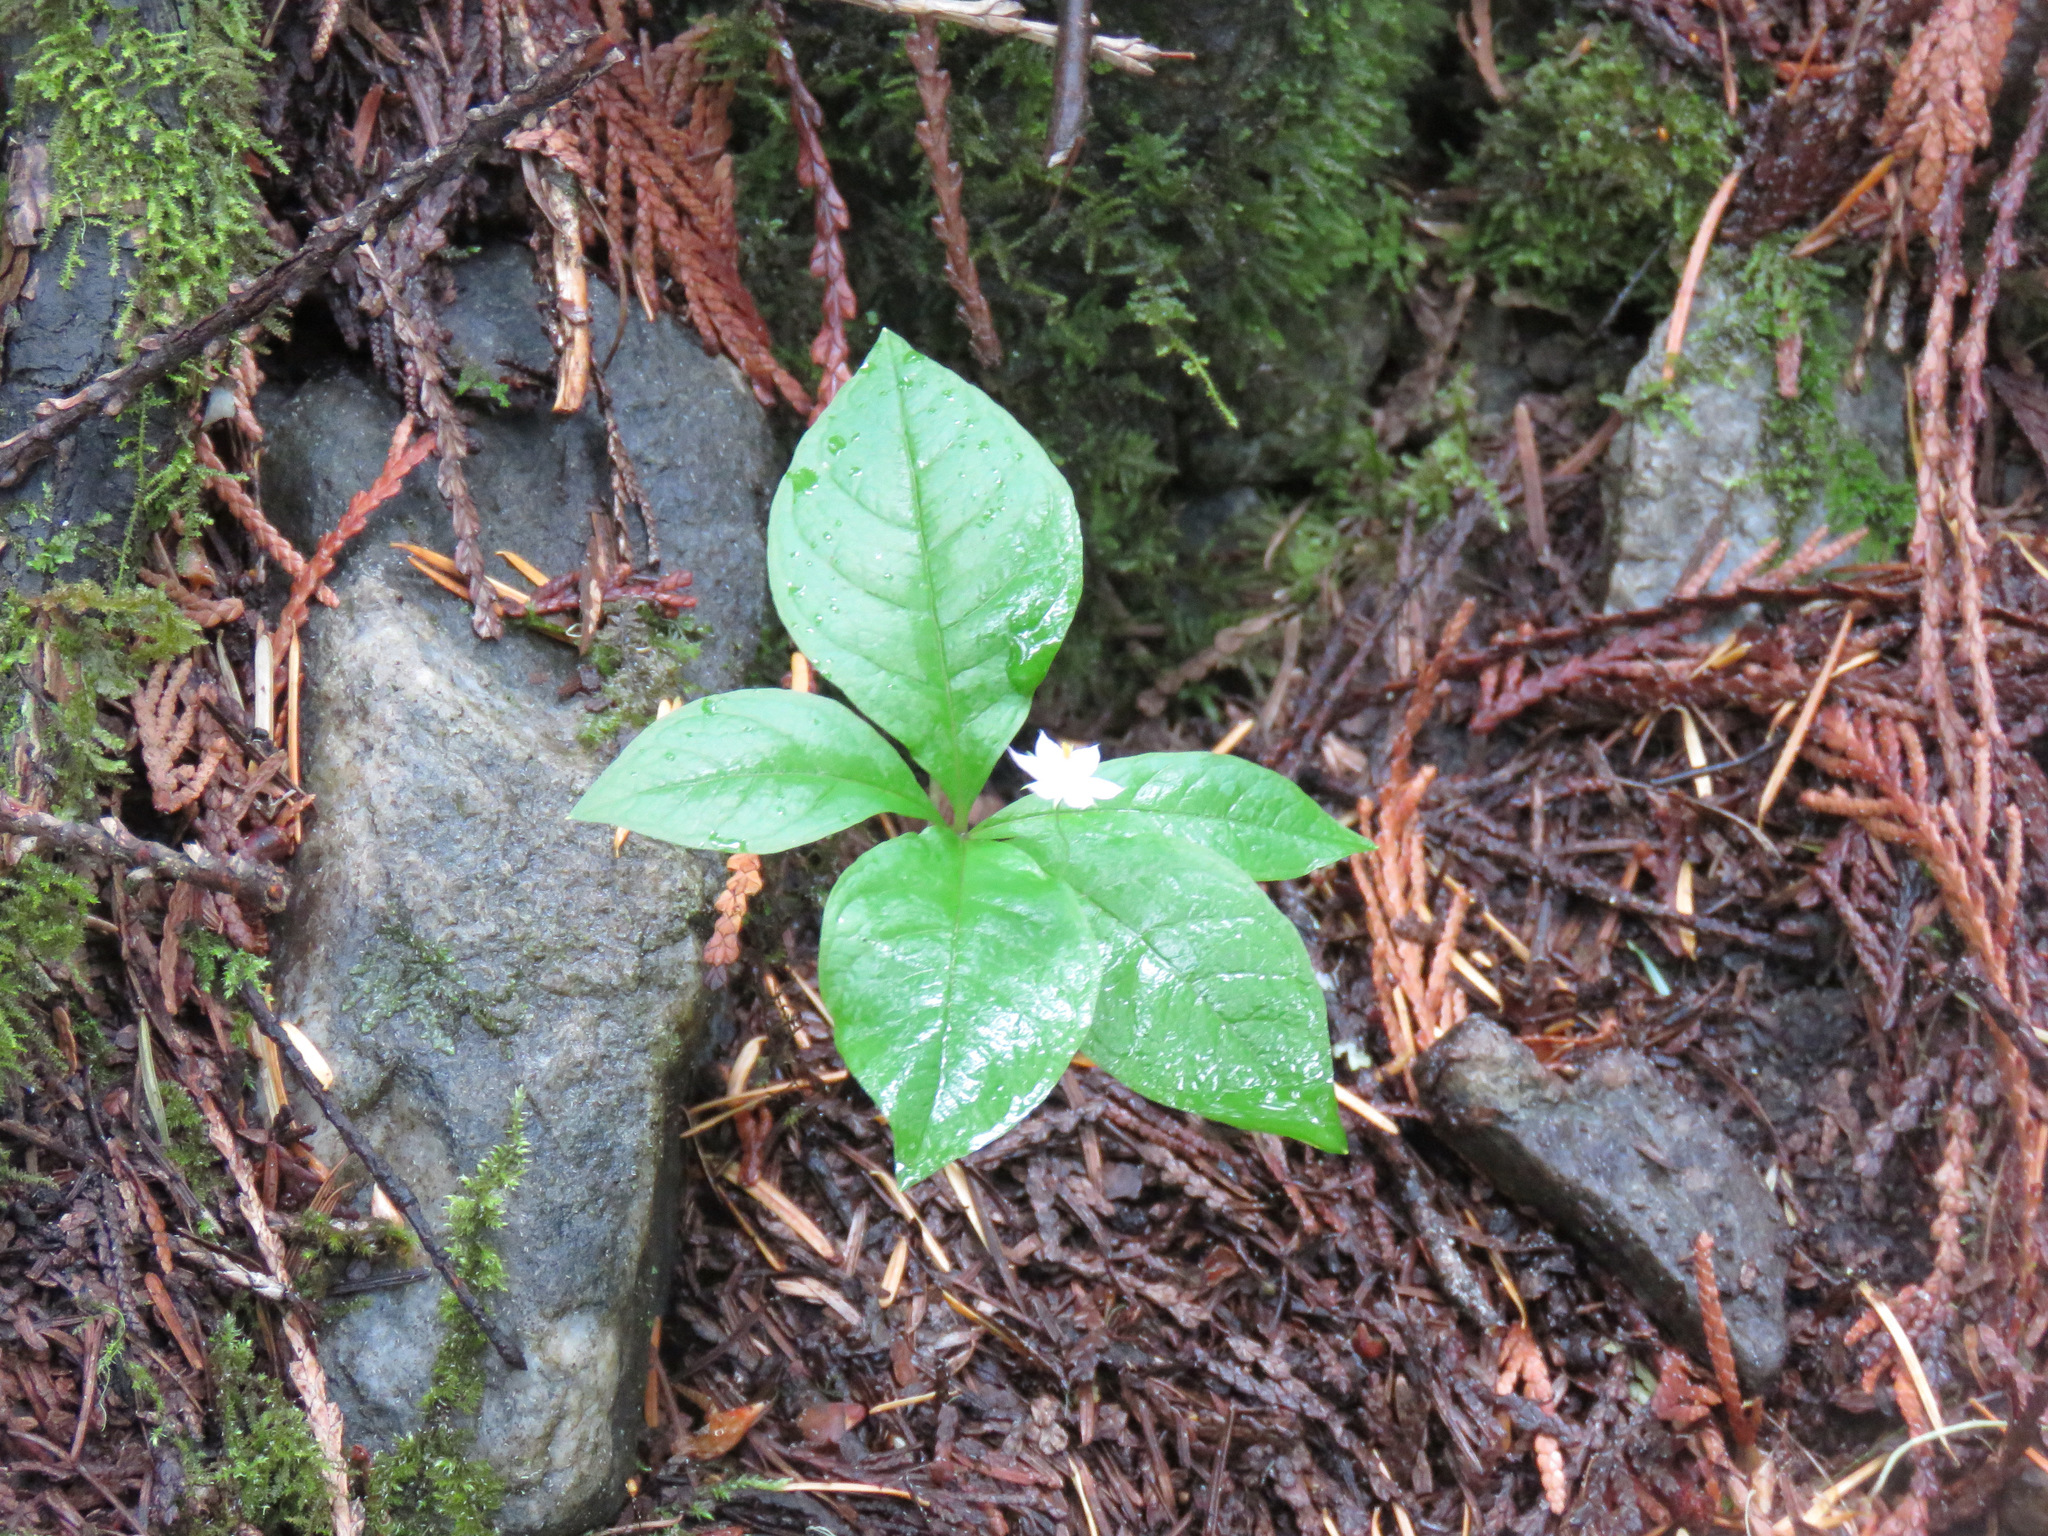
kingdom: Plantae
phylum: Tracheophyta
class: Magnoliopsida
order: Ericales
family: Primulaceae
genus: Lysimachia
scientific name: Lysimachia latifolia
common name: Pacific starflower
